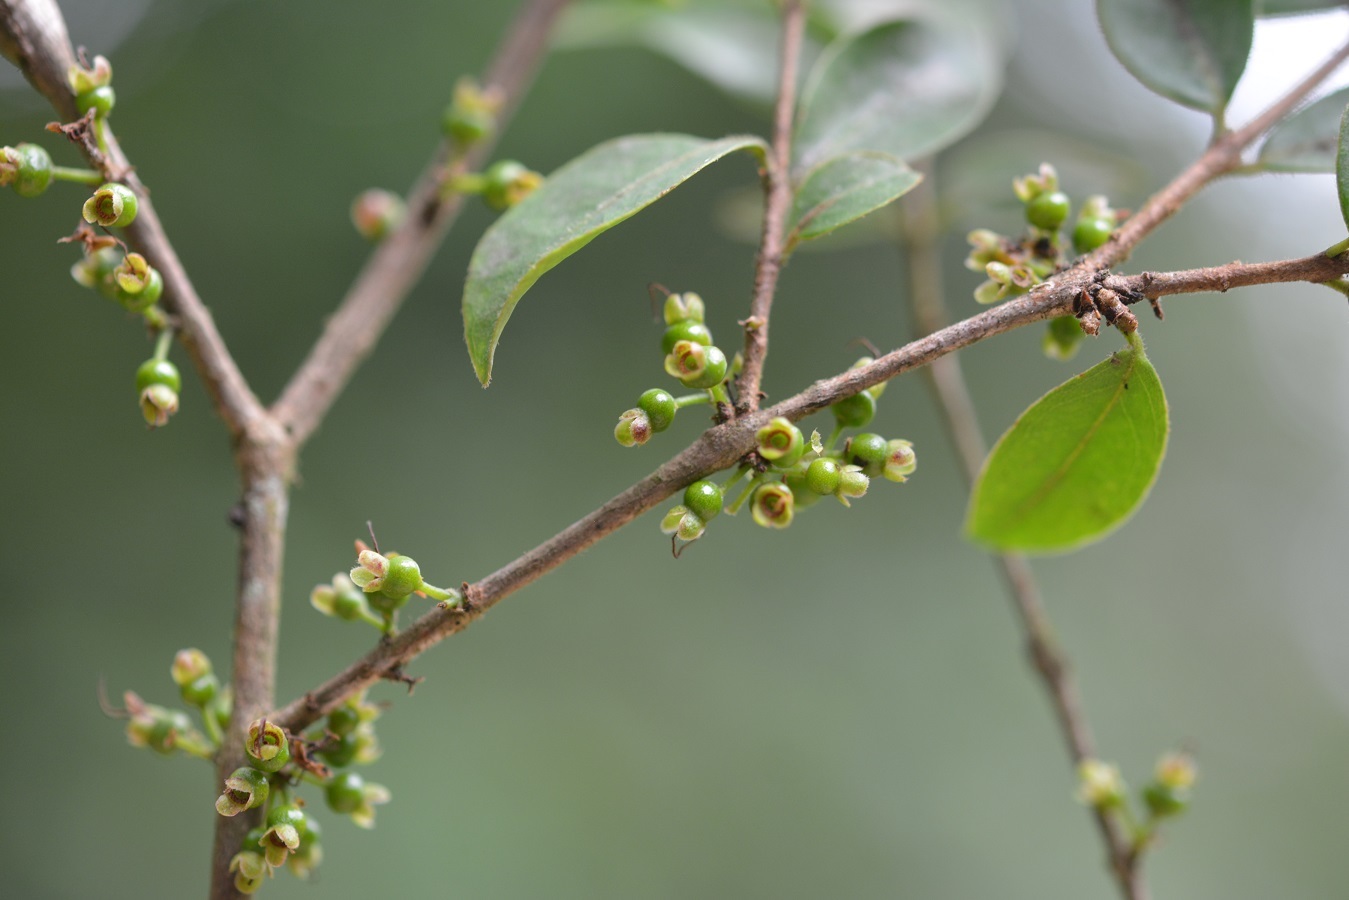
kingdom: Plantae
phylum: Tracheophyta
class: Magnoliopsida
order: Myrtales
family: Myrtaceae
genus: Eugenia
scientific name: Eugenia trikii
